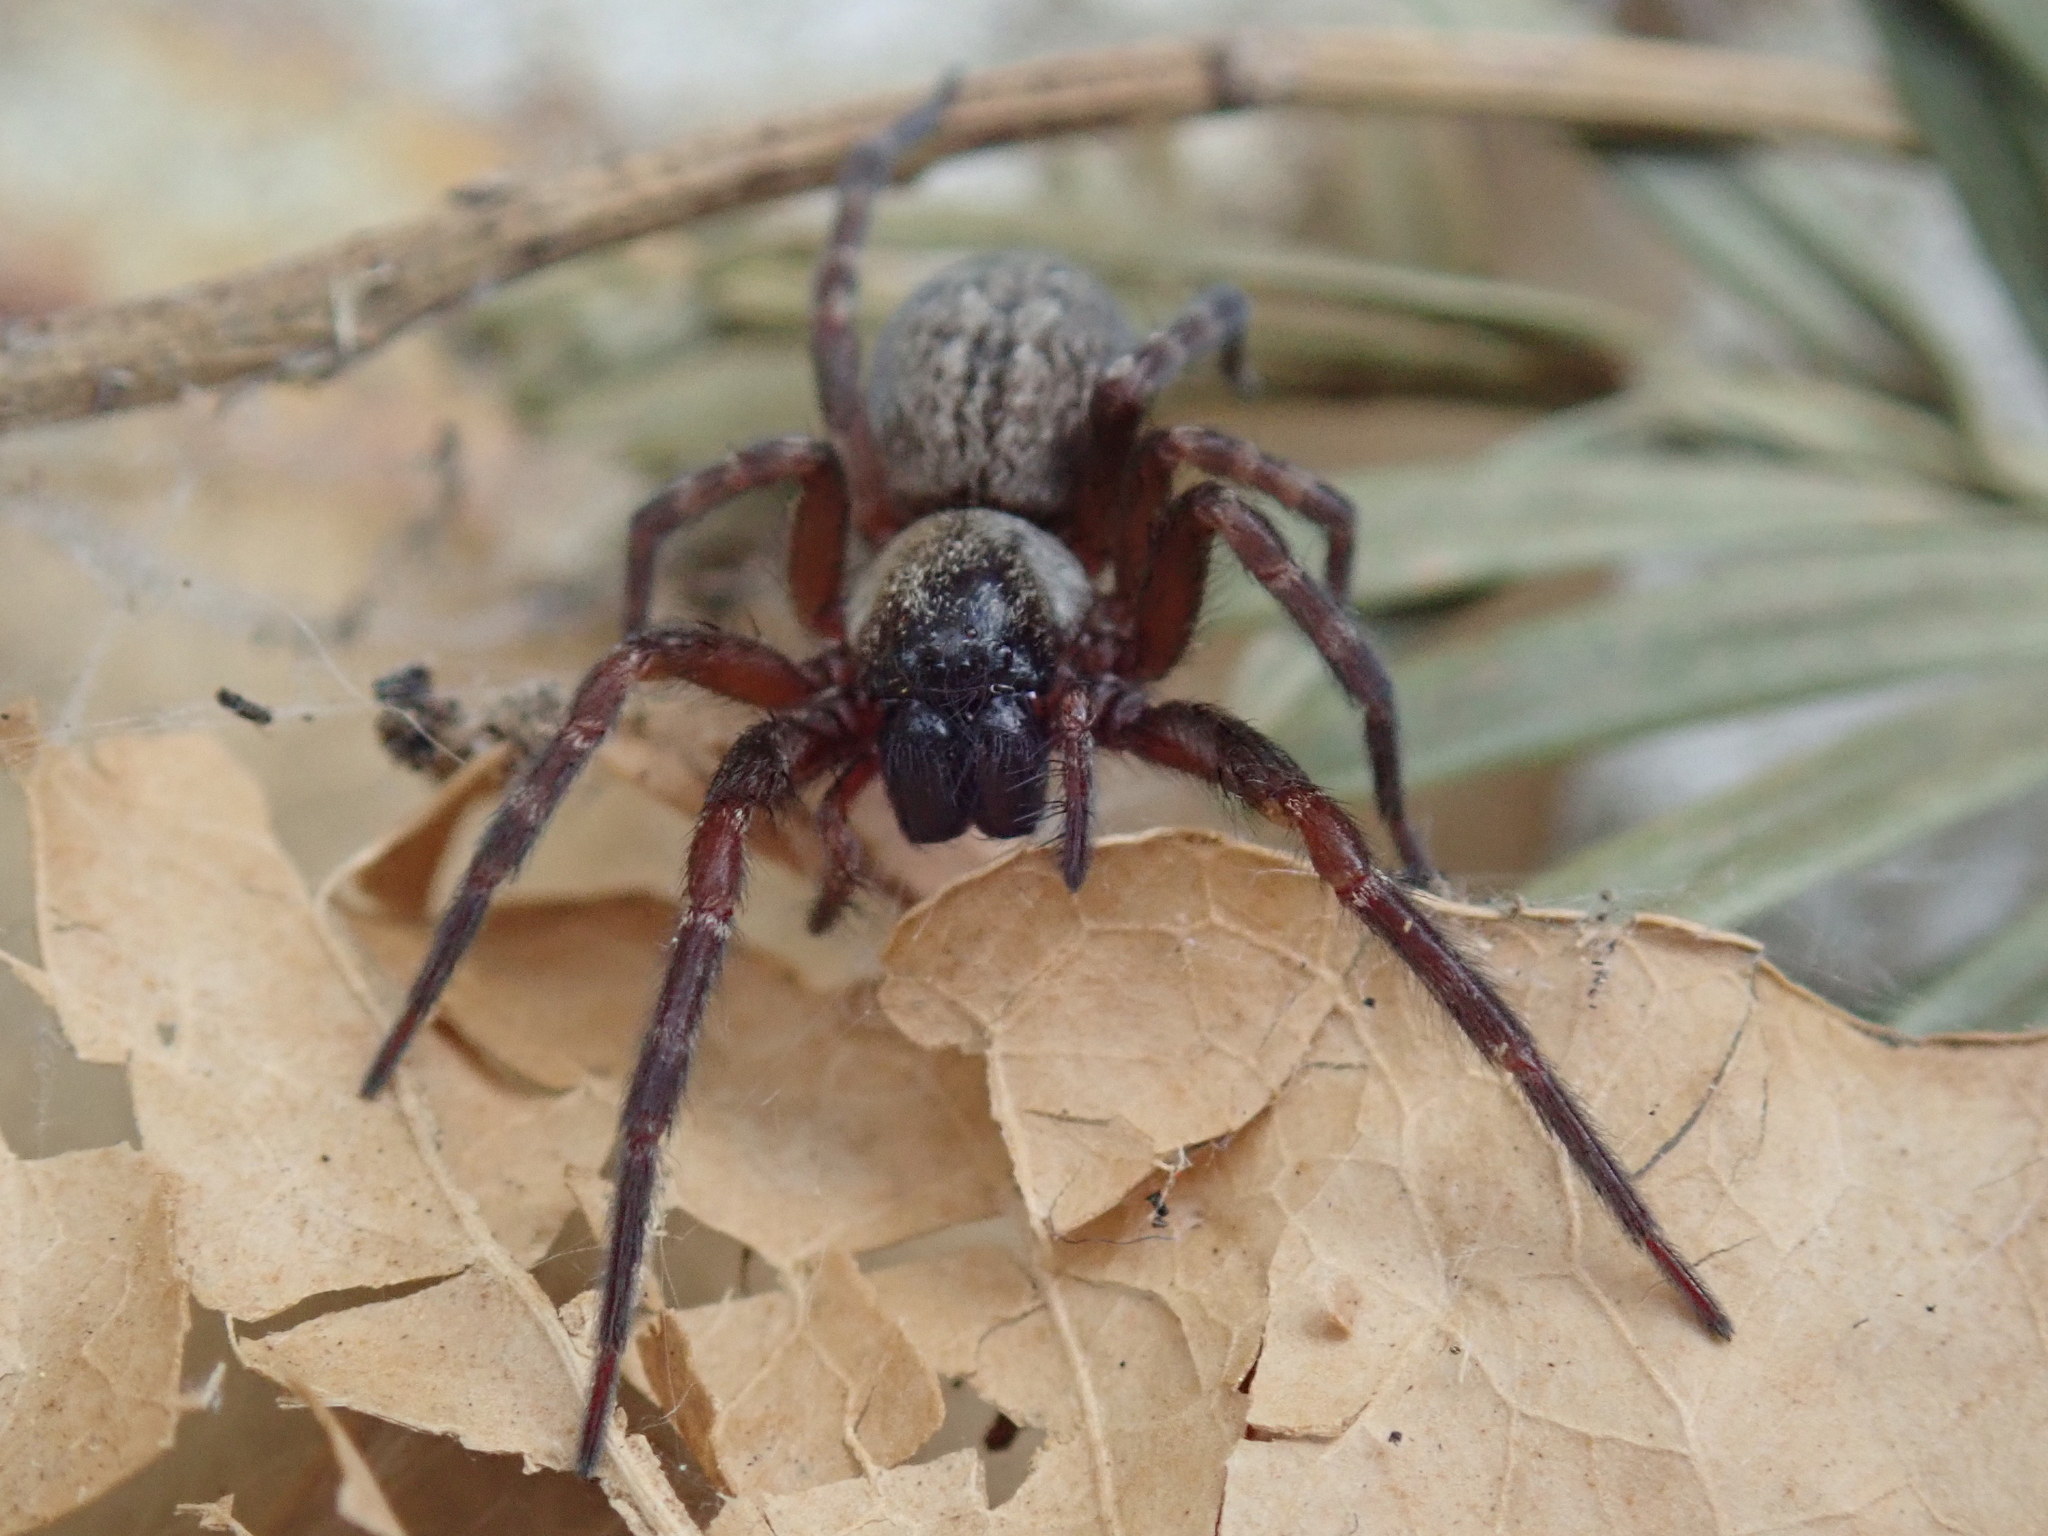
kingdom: Animalia
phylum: Arthropoda
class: Arachnida
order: Araneae
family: Desidae
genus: Badumna
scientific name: Badumna longinqua
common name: Gray house spider
